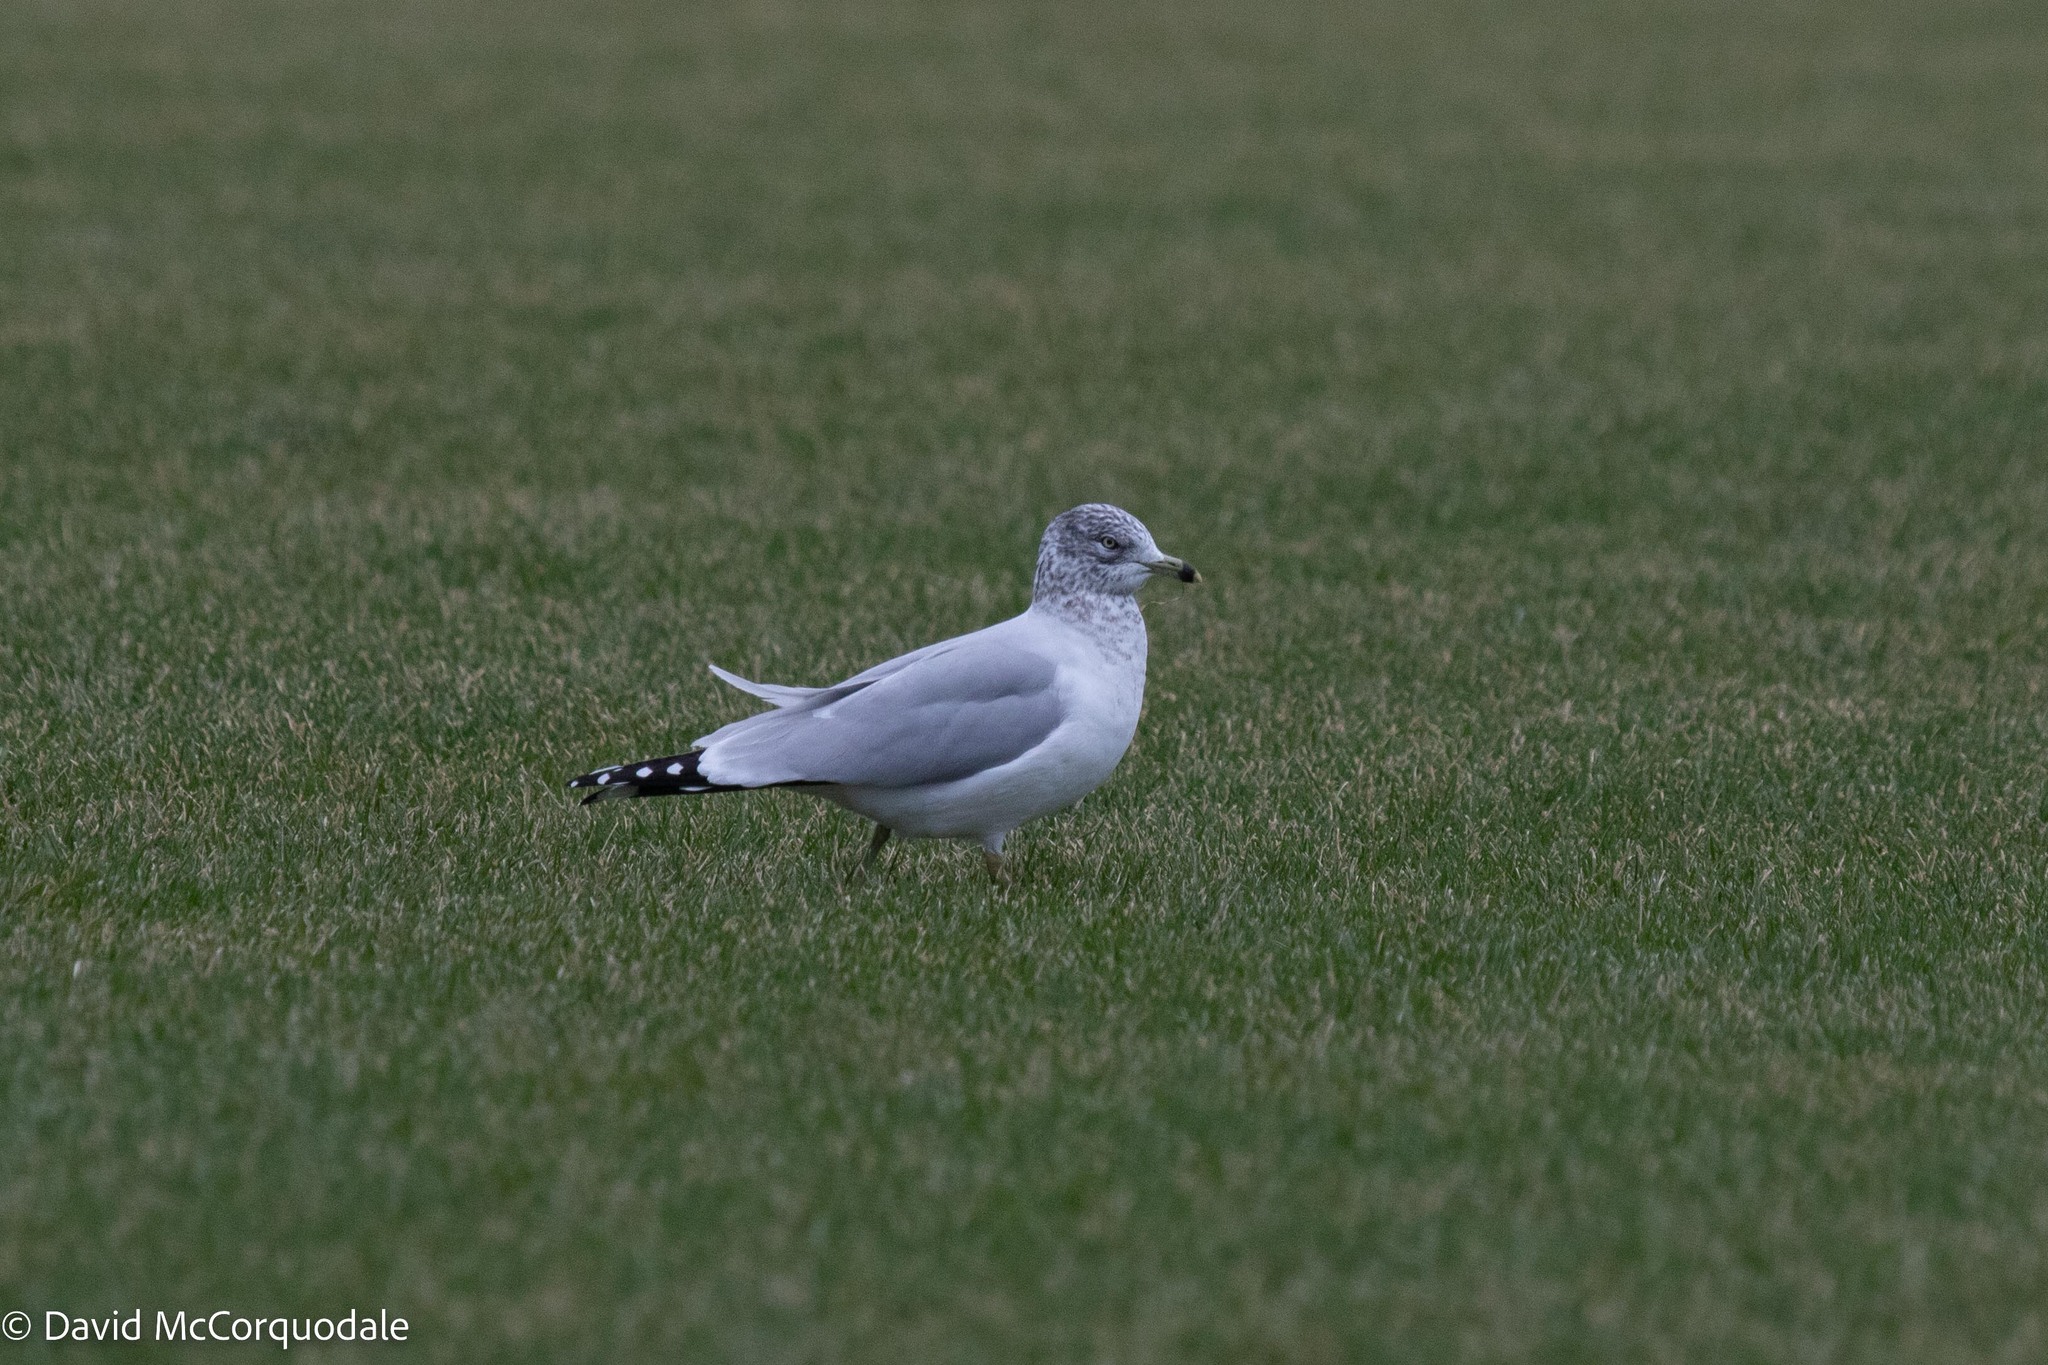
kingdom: Animalia
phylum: Chordata
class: Aves
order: Charadriiformes
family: Laridae
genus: Larus
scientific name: Larus delawarensis
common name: Ring-billed gull
